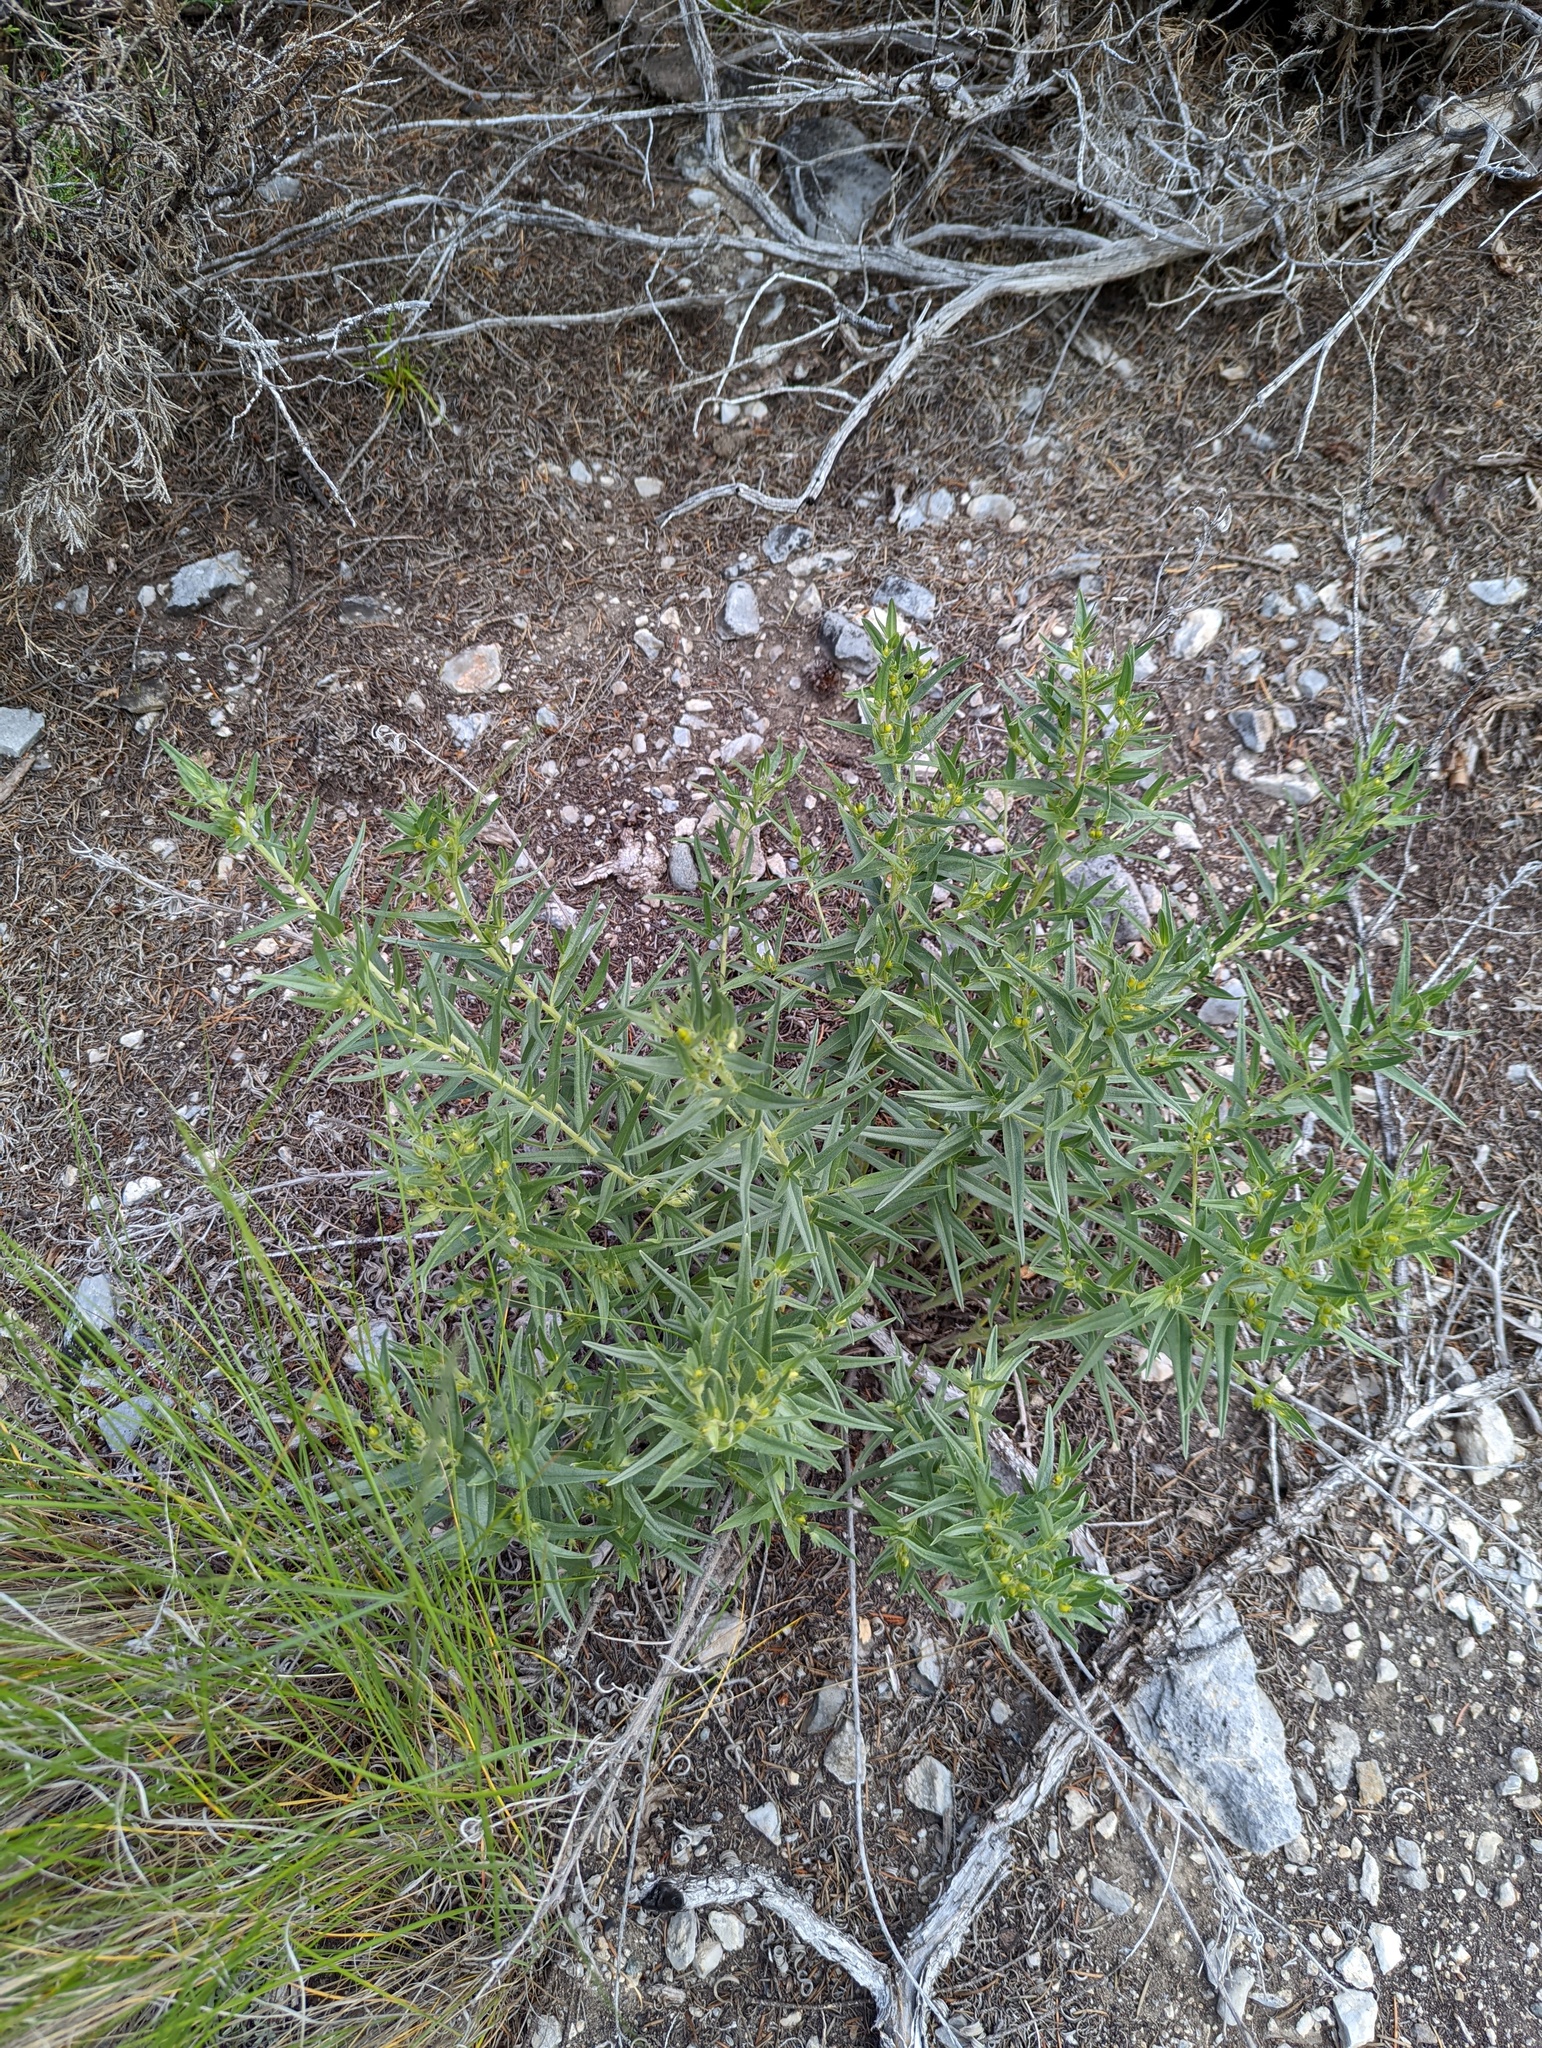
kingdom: Plantae
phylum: Tracheophyta
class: Magnoliopsida
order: Boraginales
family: Boraginaceae
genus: Lithospermum
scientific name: Lithospermum ruderale
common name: Western gromwell
